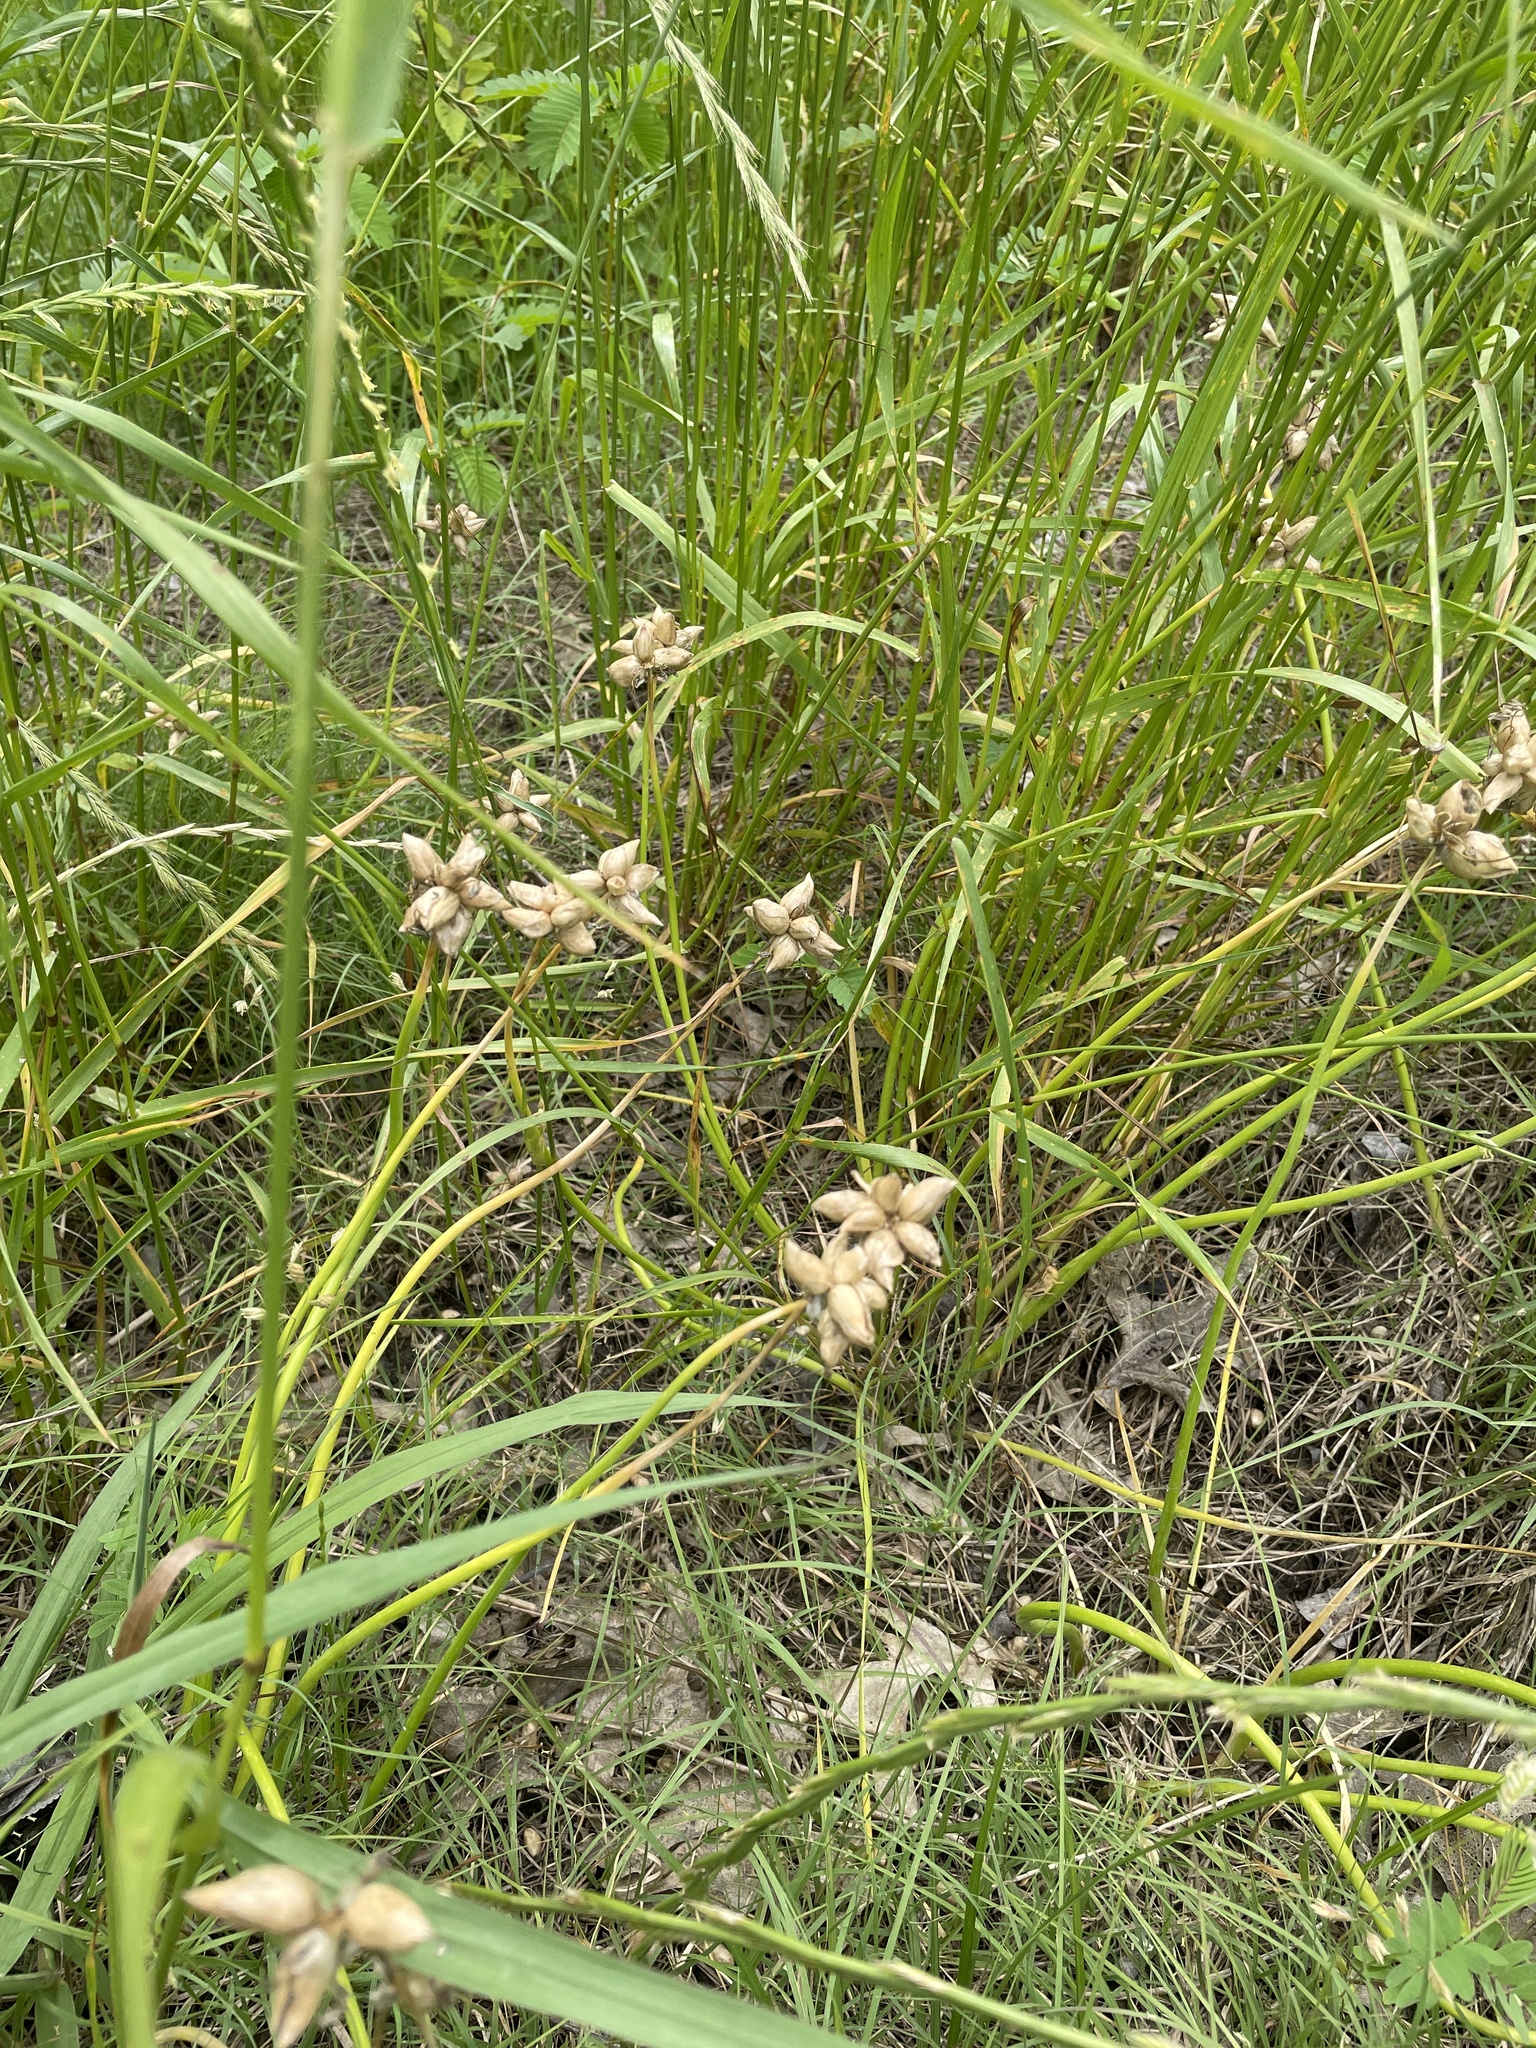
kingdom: Plantae
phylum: Tracheophyta
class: Liliopsida
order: Asparagales
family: Amaryllidaceae
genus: Allium
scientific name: Allium canadense
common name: Meadow garlic
